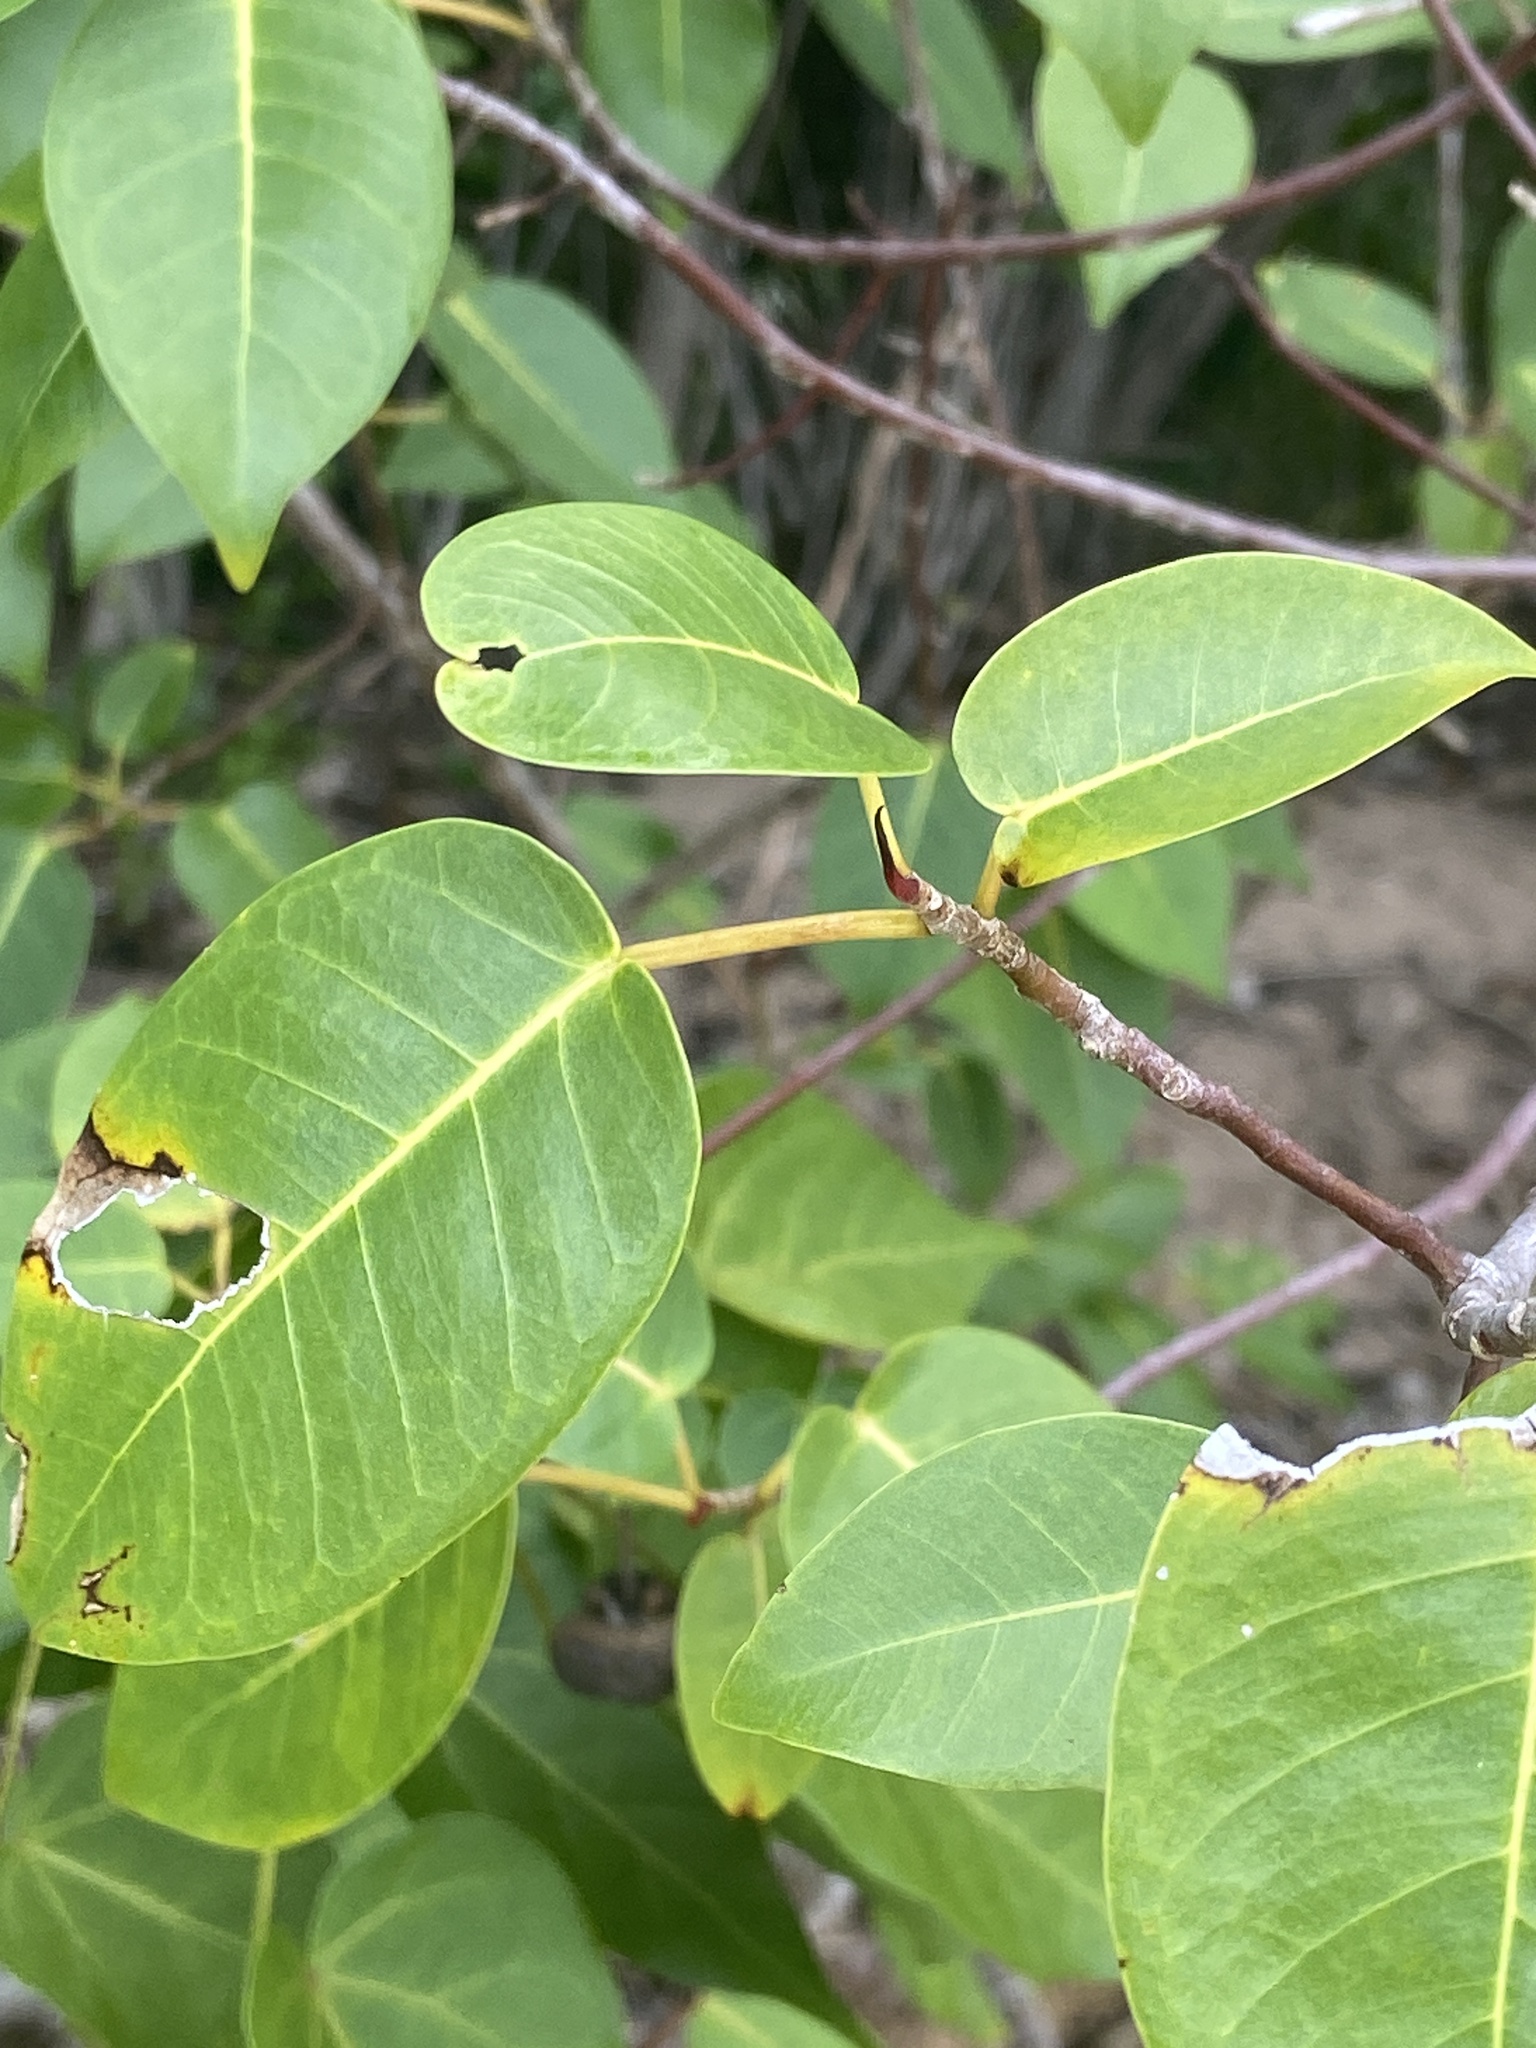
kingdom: Plantae
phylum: Tracheophyta
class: Magnoliopsida
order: Rosales
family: Moraceae
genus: Ficus
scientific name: Ficus citrifolia
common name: Strangler fig
